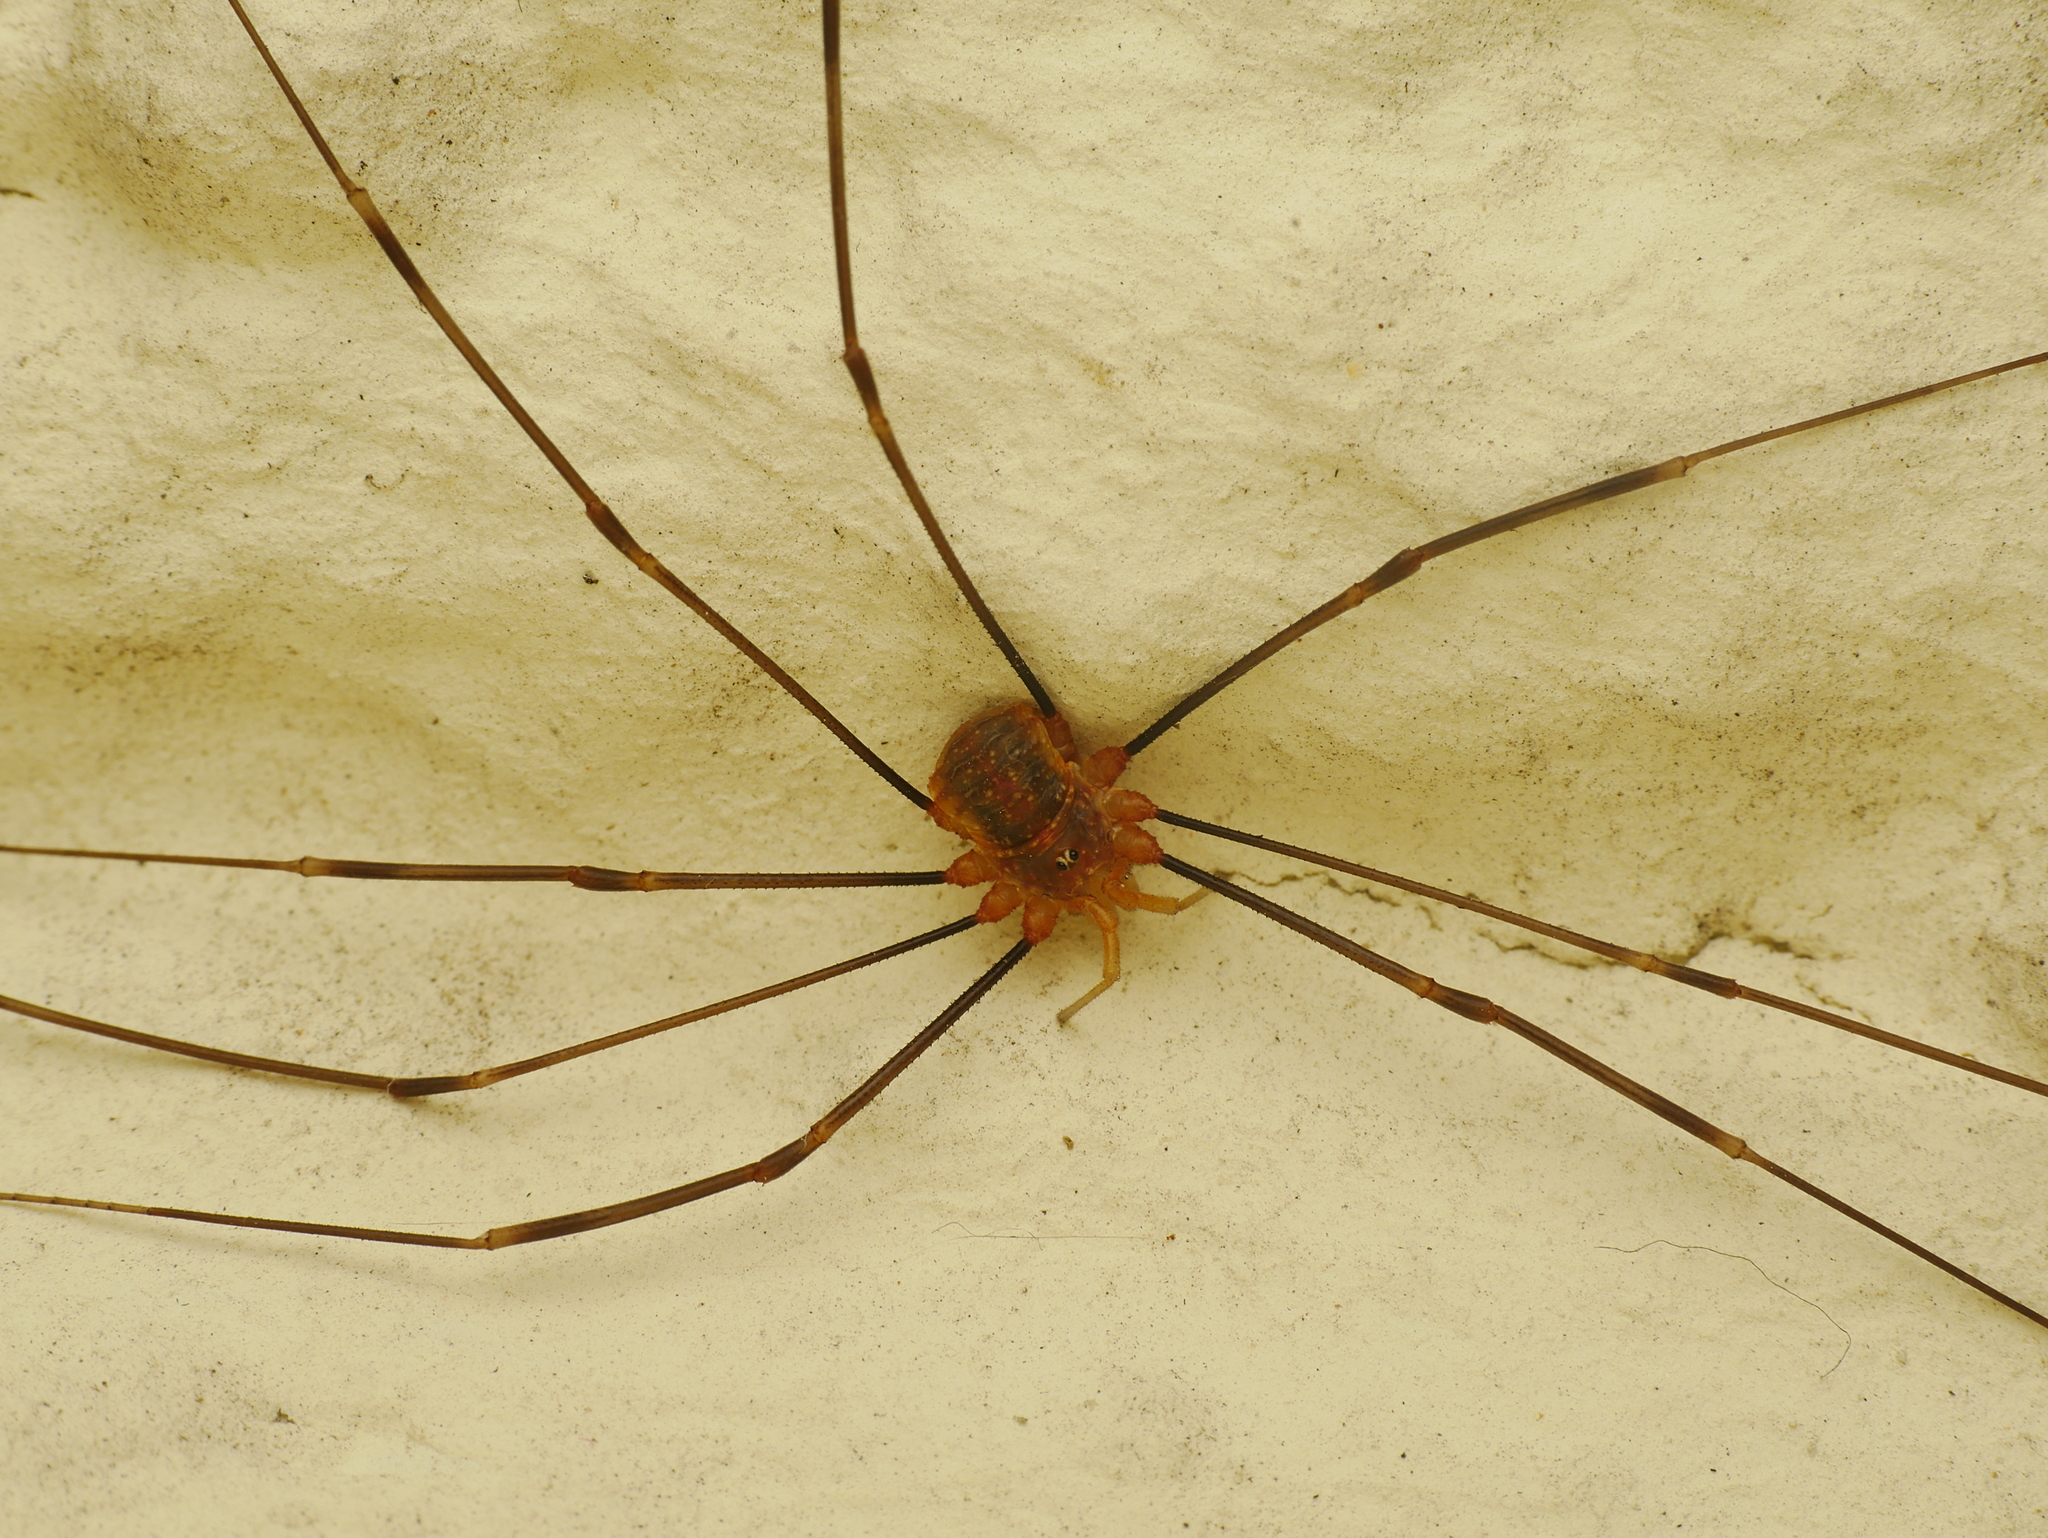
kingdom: Animalia
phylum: Arthropoda
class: Arachnida
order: Opiliones
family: Phalangiidae
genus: Opilio
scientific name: Opilio canestrinii
